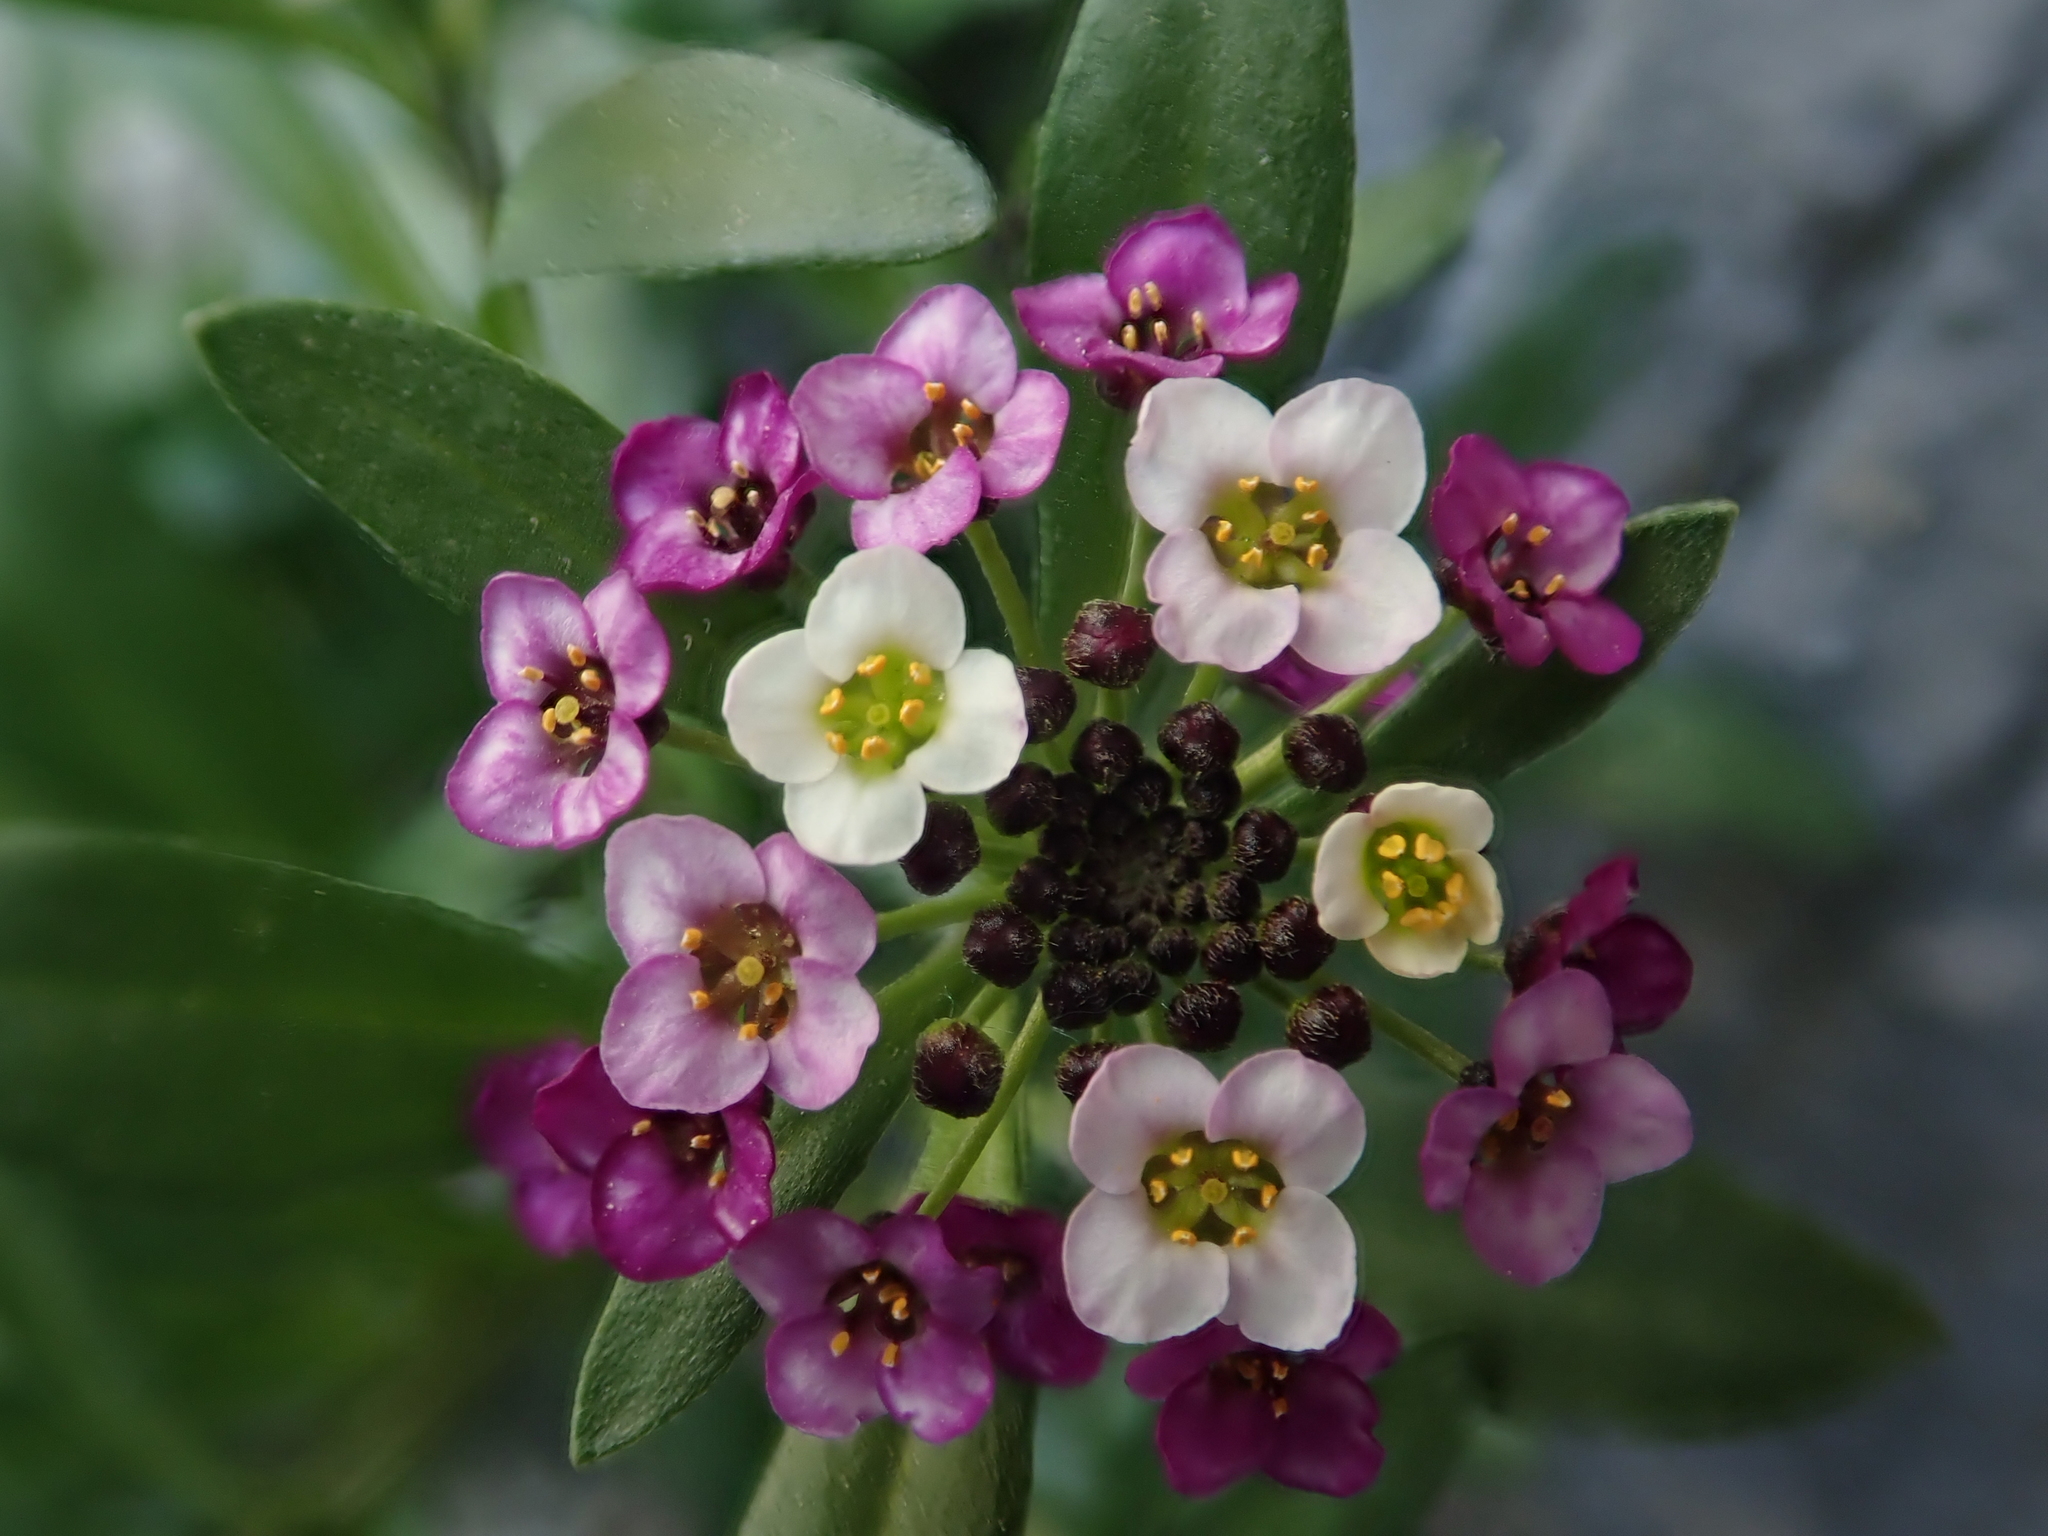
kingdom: Plantae
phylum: Tracheophyta
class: Magnoliopsida
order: Brassicales
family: Brassicaceae
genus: Lobularia
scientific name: Lobularia maritima
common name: Sweet alison
